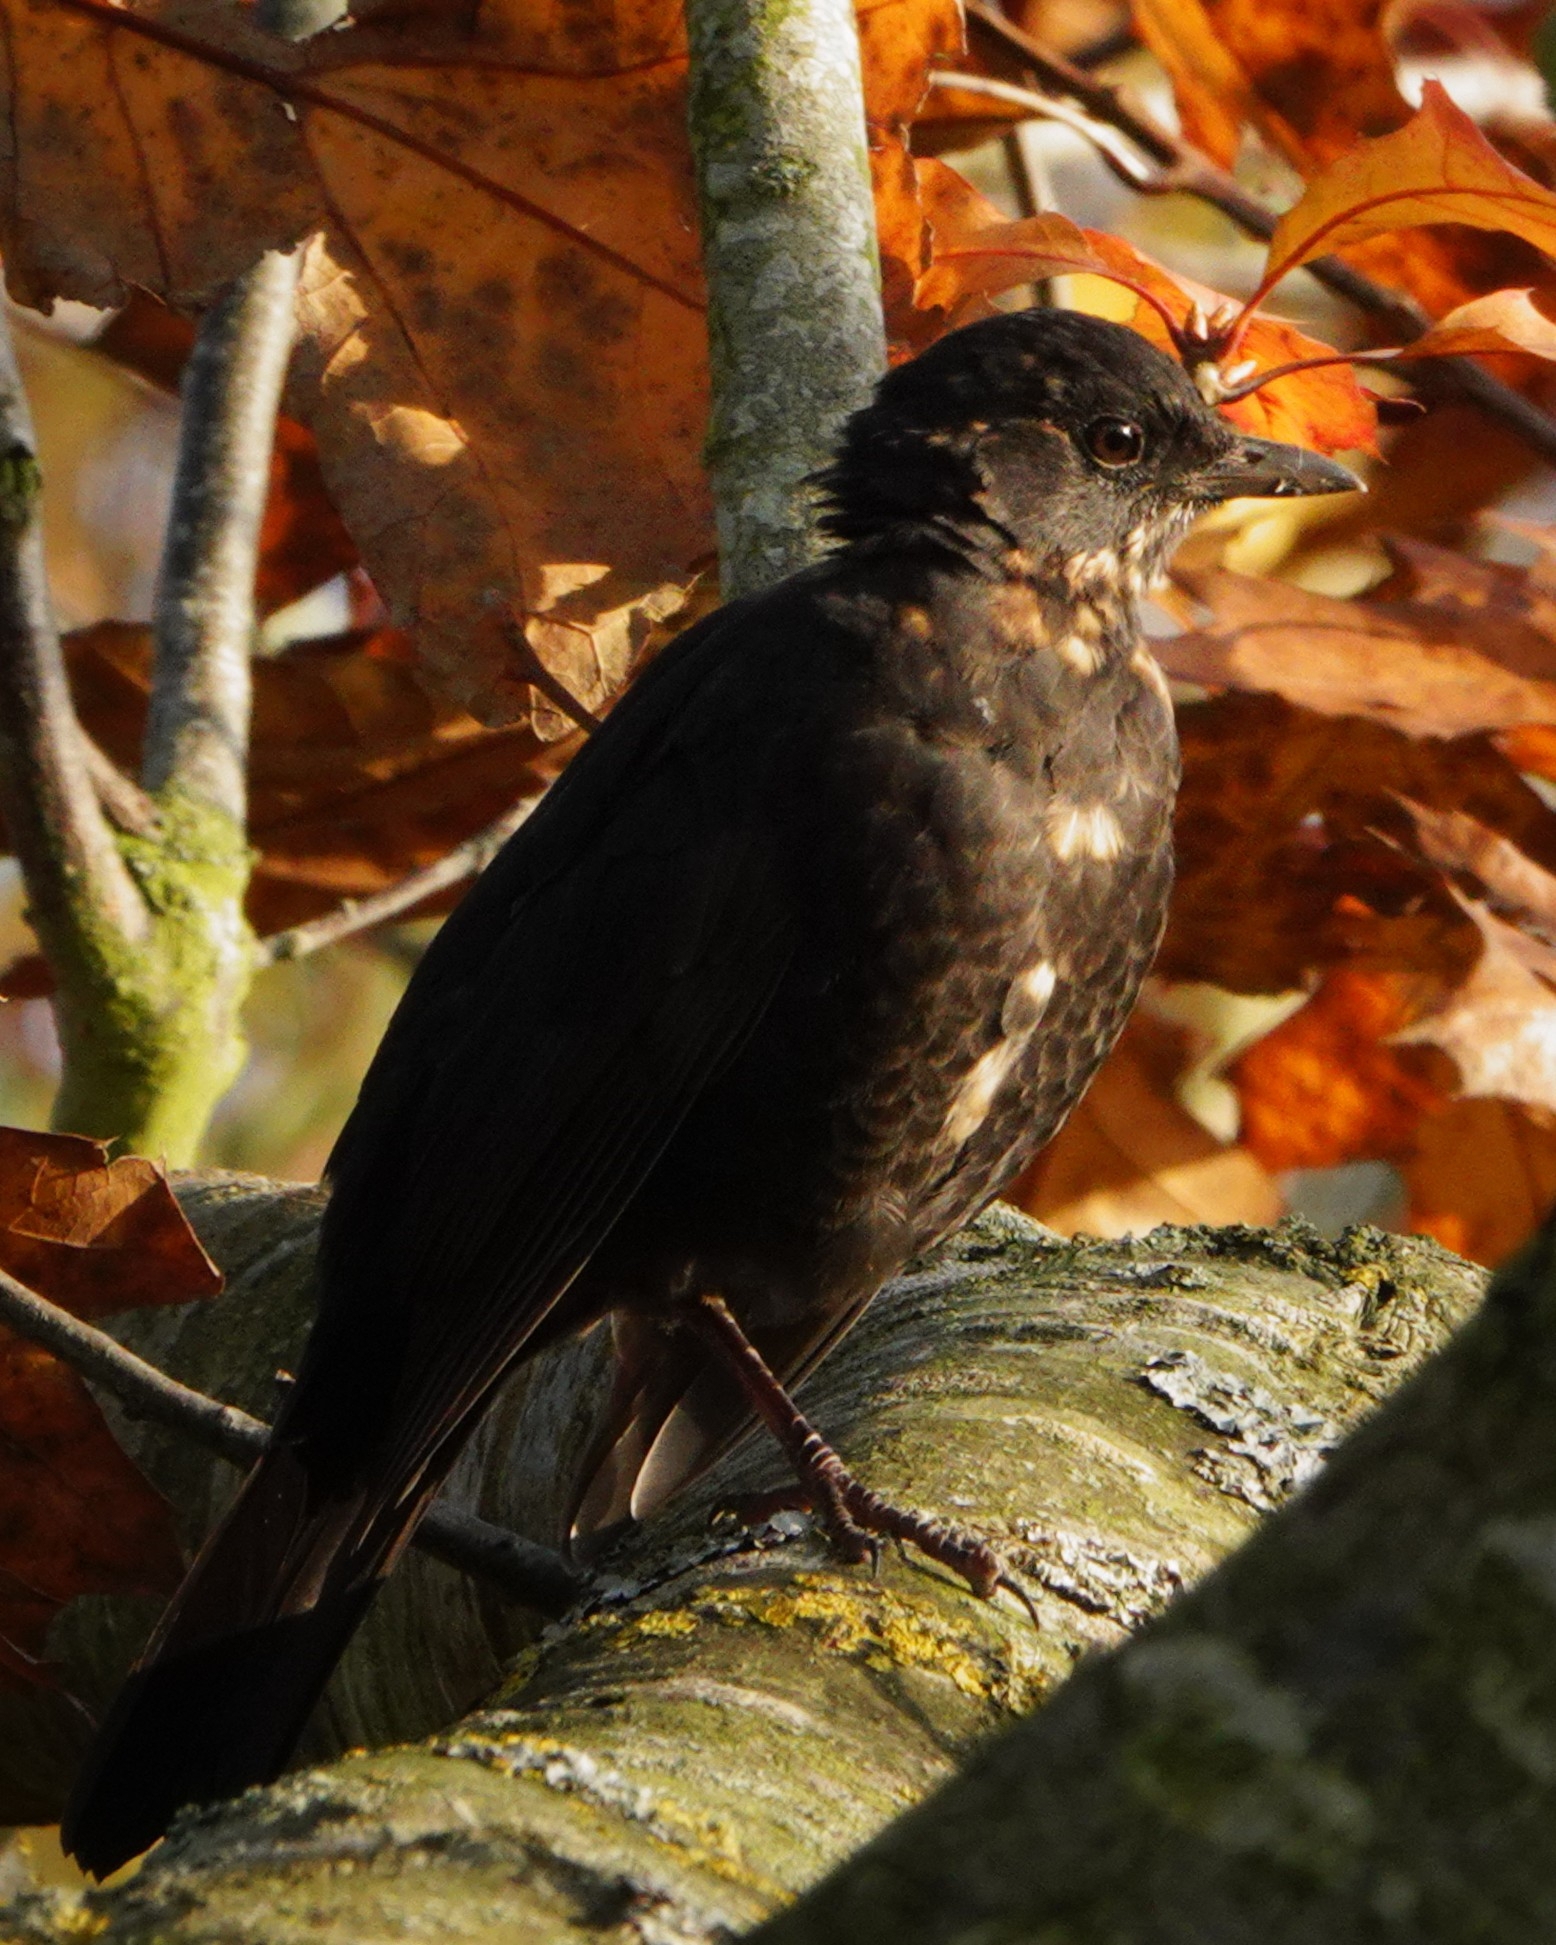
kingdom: Animalia
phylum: Chordata
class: Aves
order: Passeriformes
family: Turdidae
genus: Turdus
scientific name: Turdus merula
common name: Common blackbird
